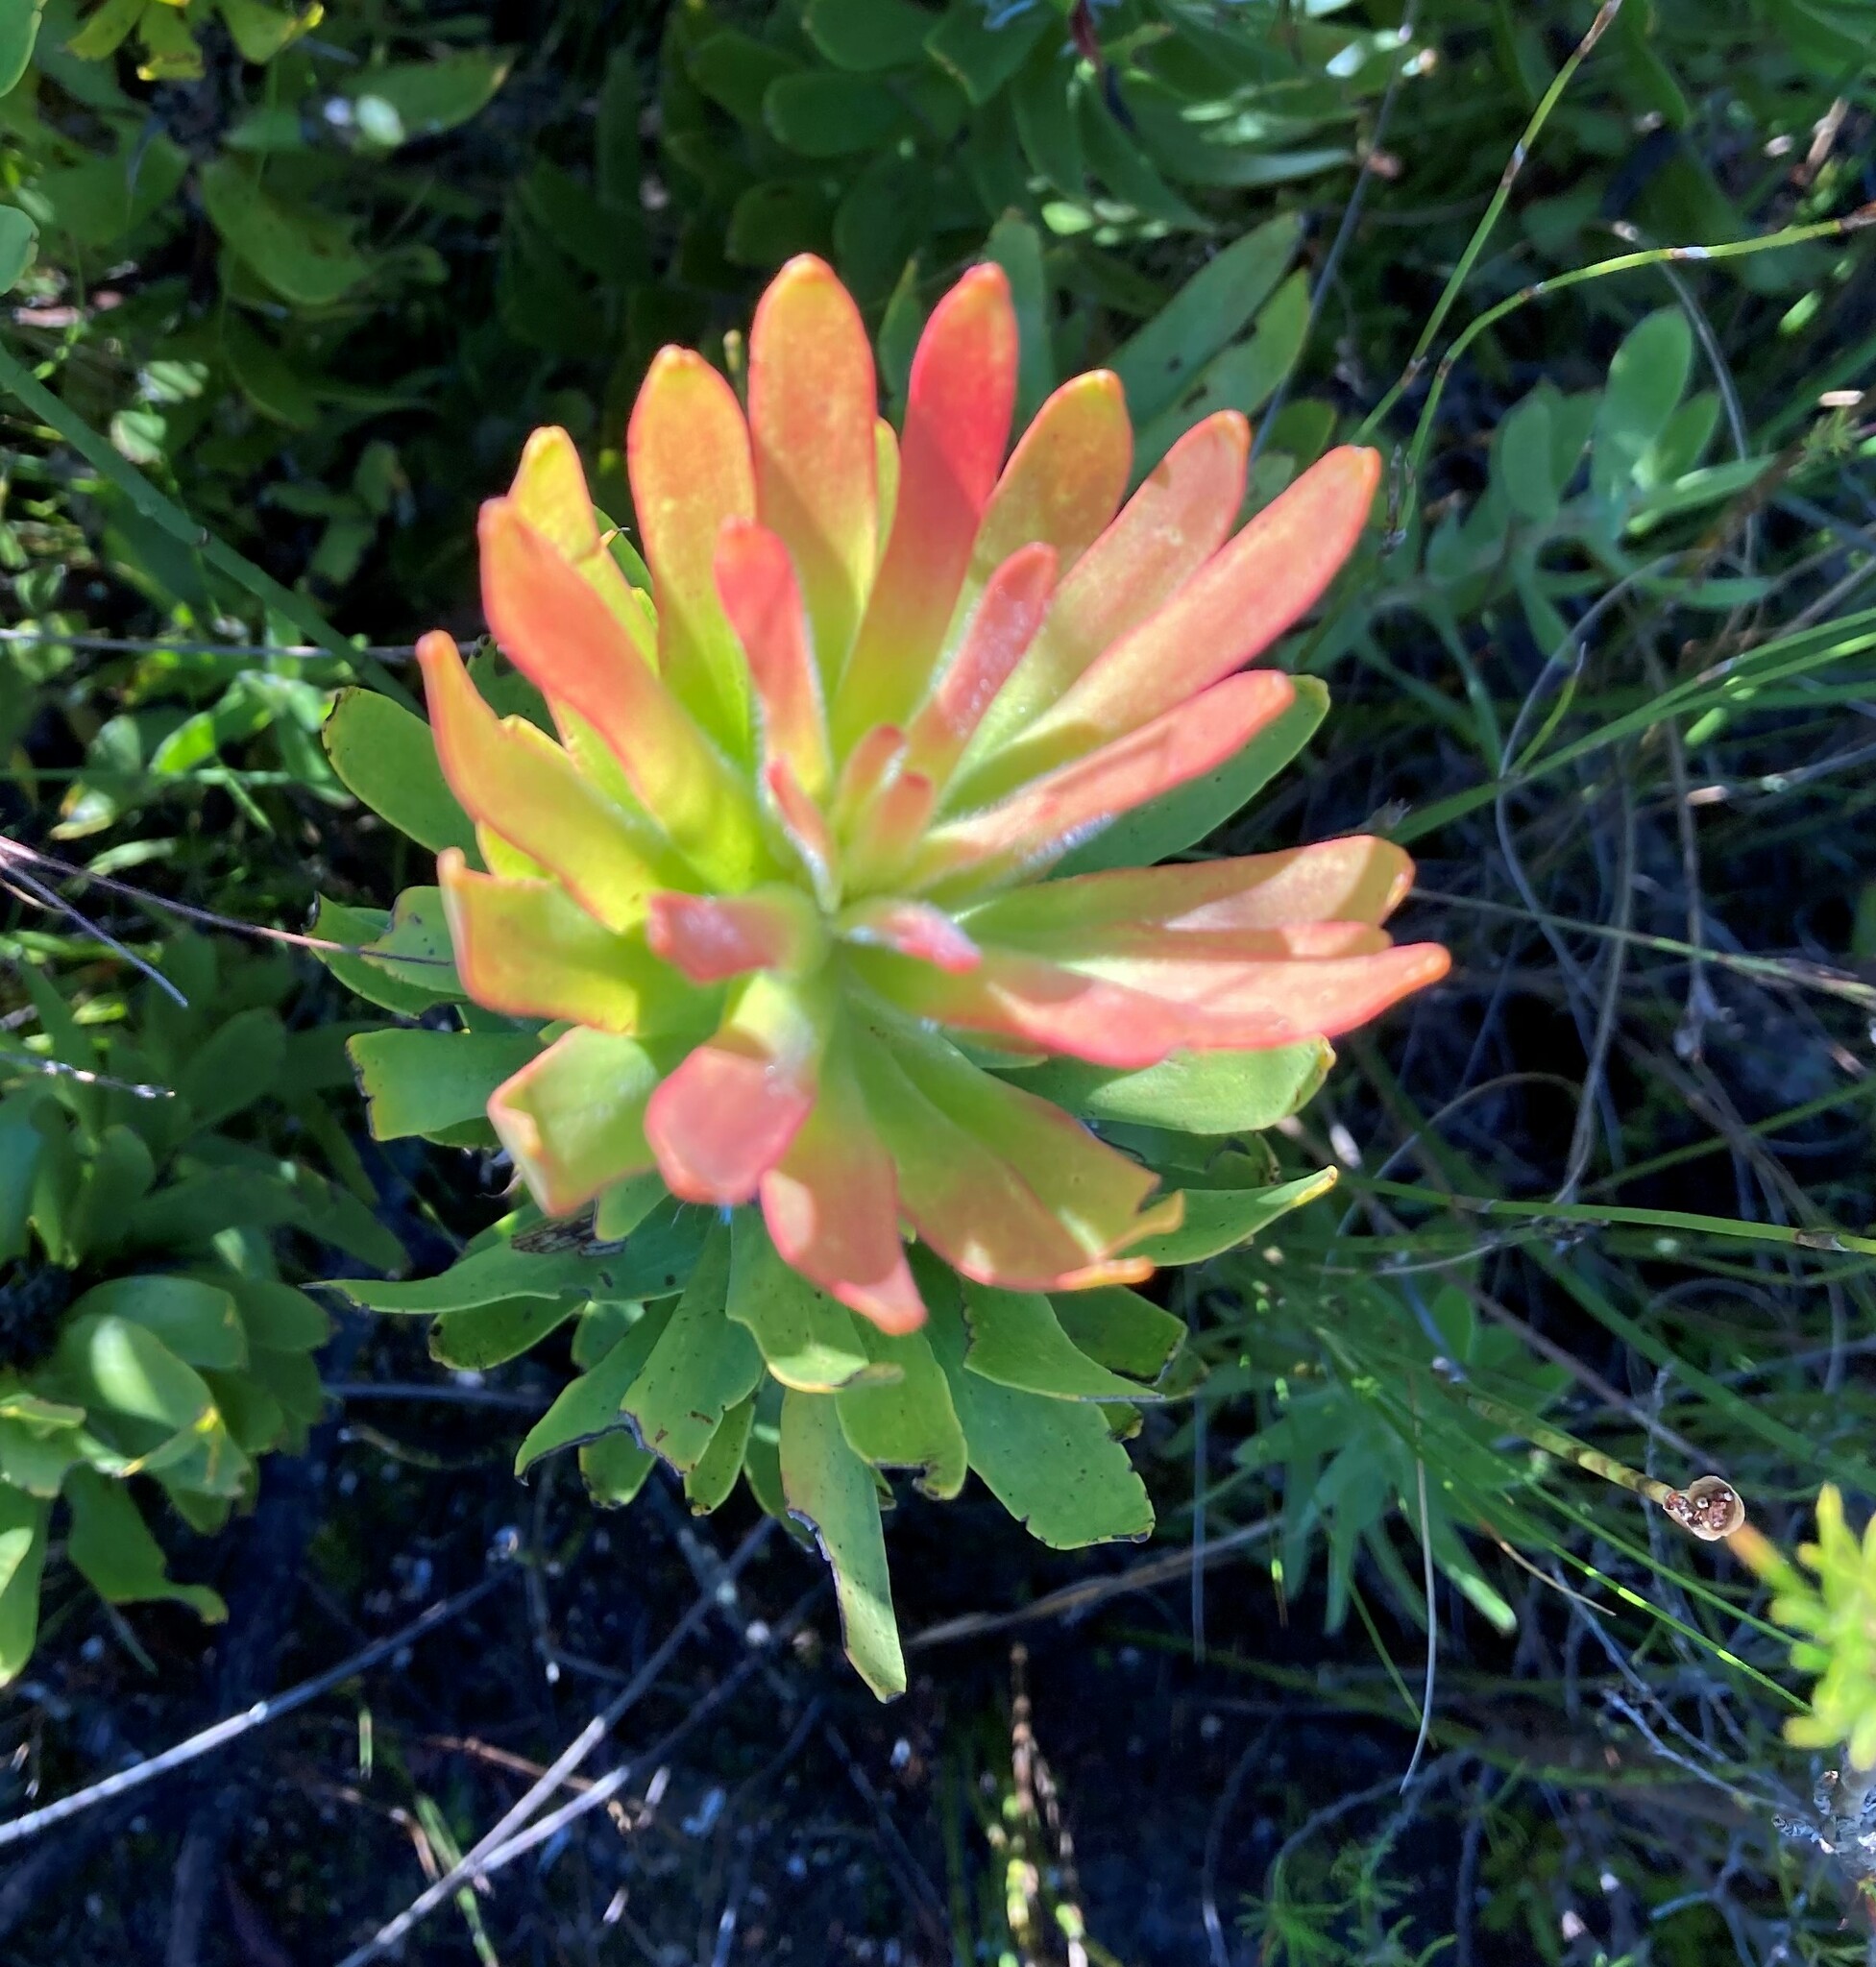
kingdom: Plantae
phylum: Tracheophyta
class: Magnoliopsida
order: Proteales
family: Proteaceae
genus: Mimetes
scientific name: Mimetes cucullatus
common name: Common pagoda
